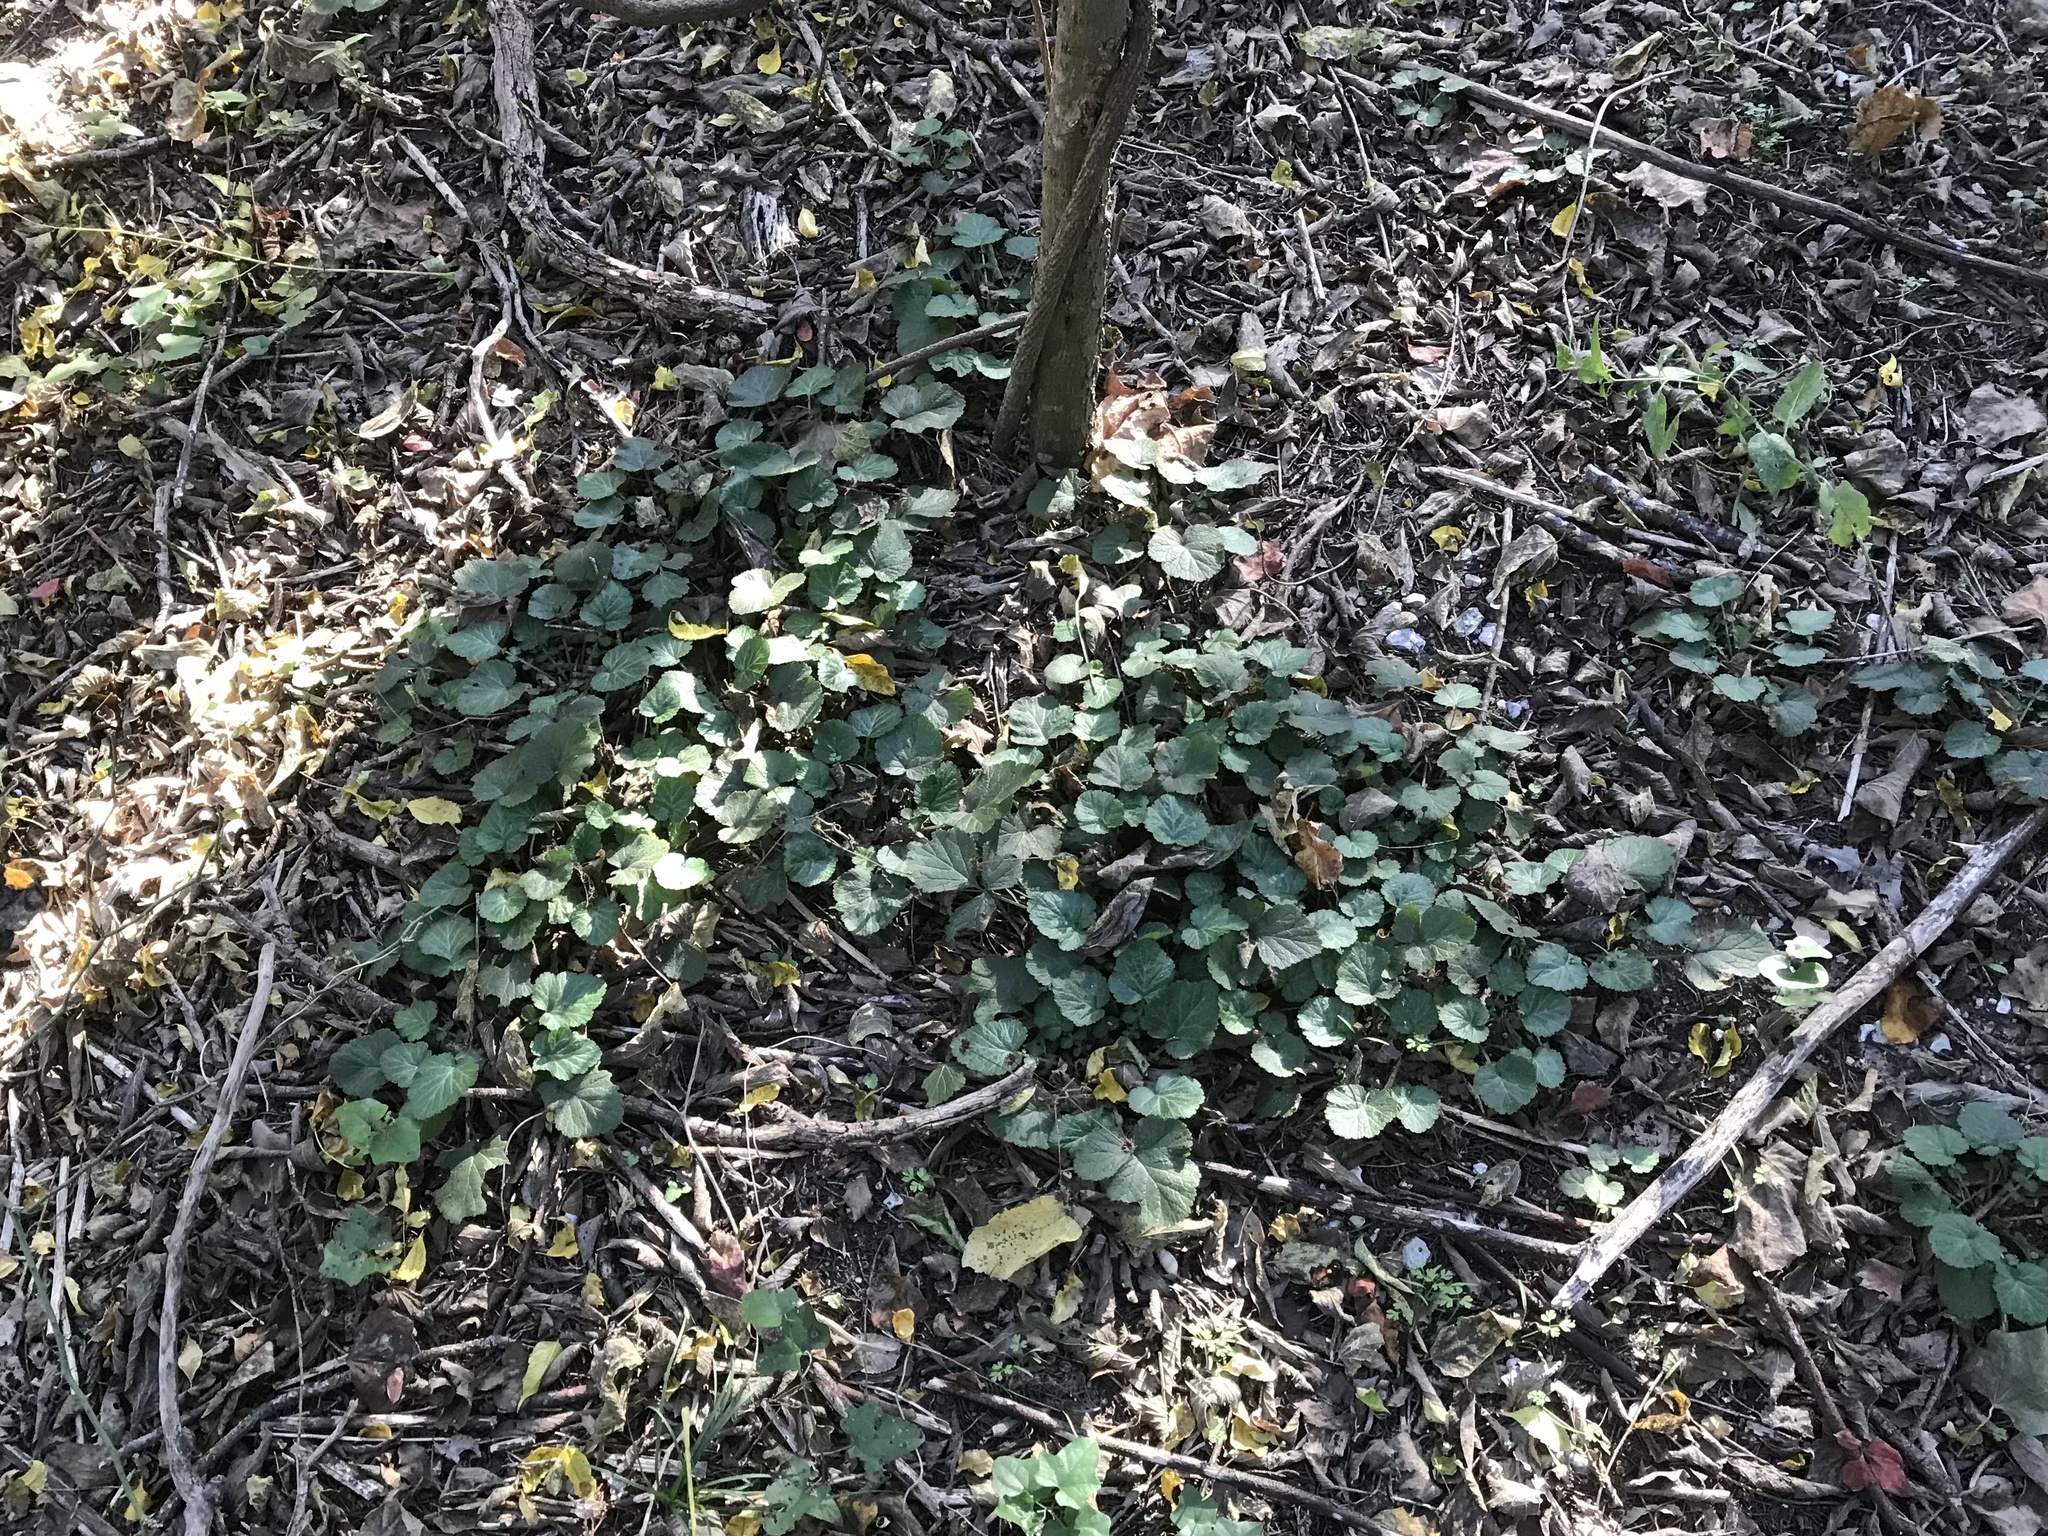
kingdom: Plantae
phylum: Tracheophyta
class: Magnoliopsida
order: Rosales
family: Rosaceae
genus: Geum
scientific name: Geum canadense
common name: White avens
